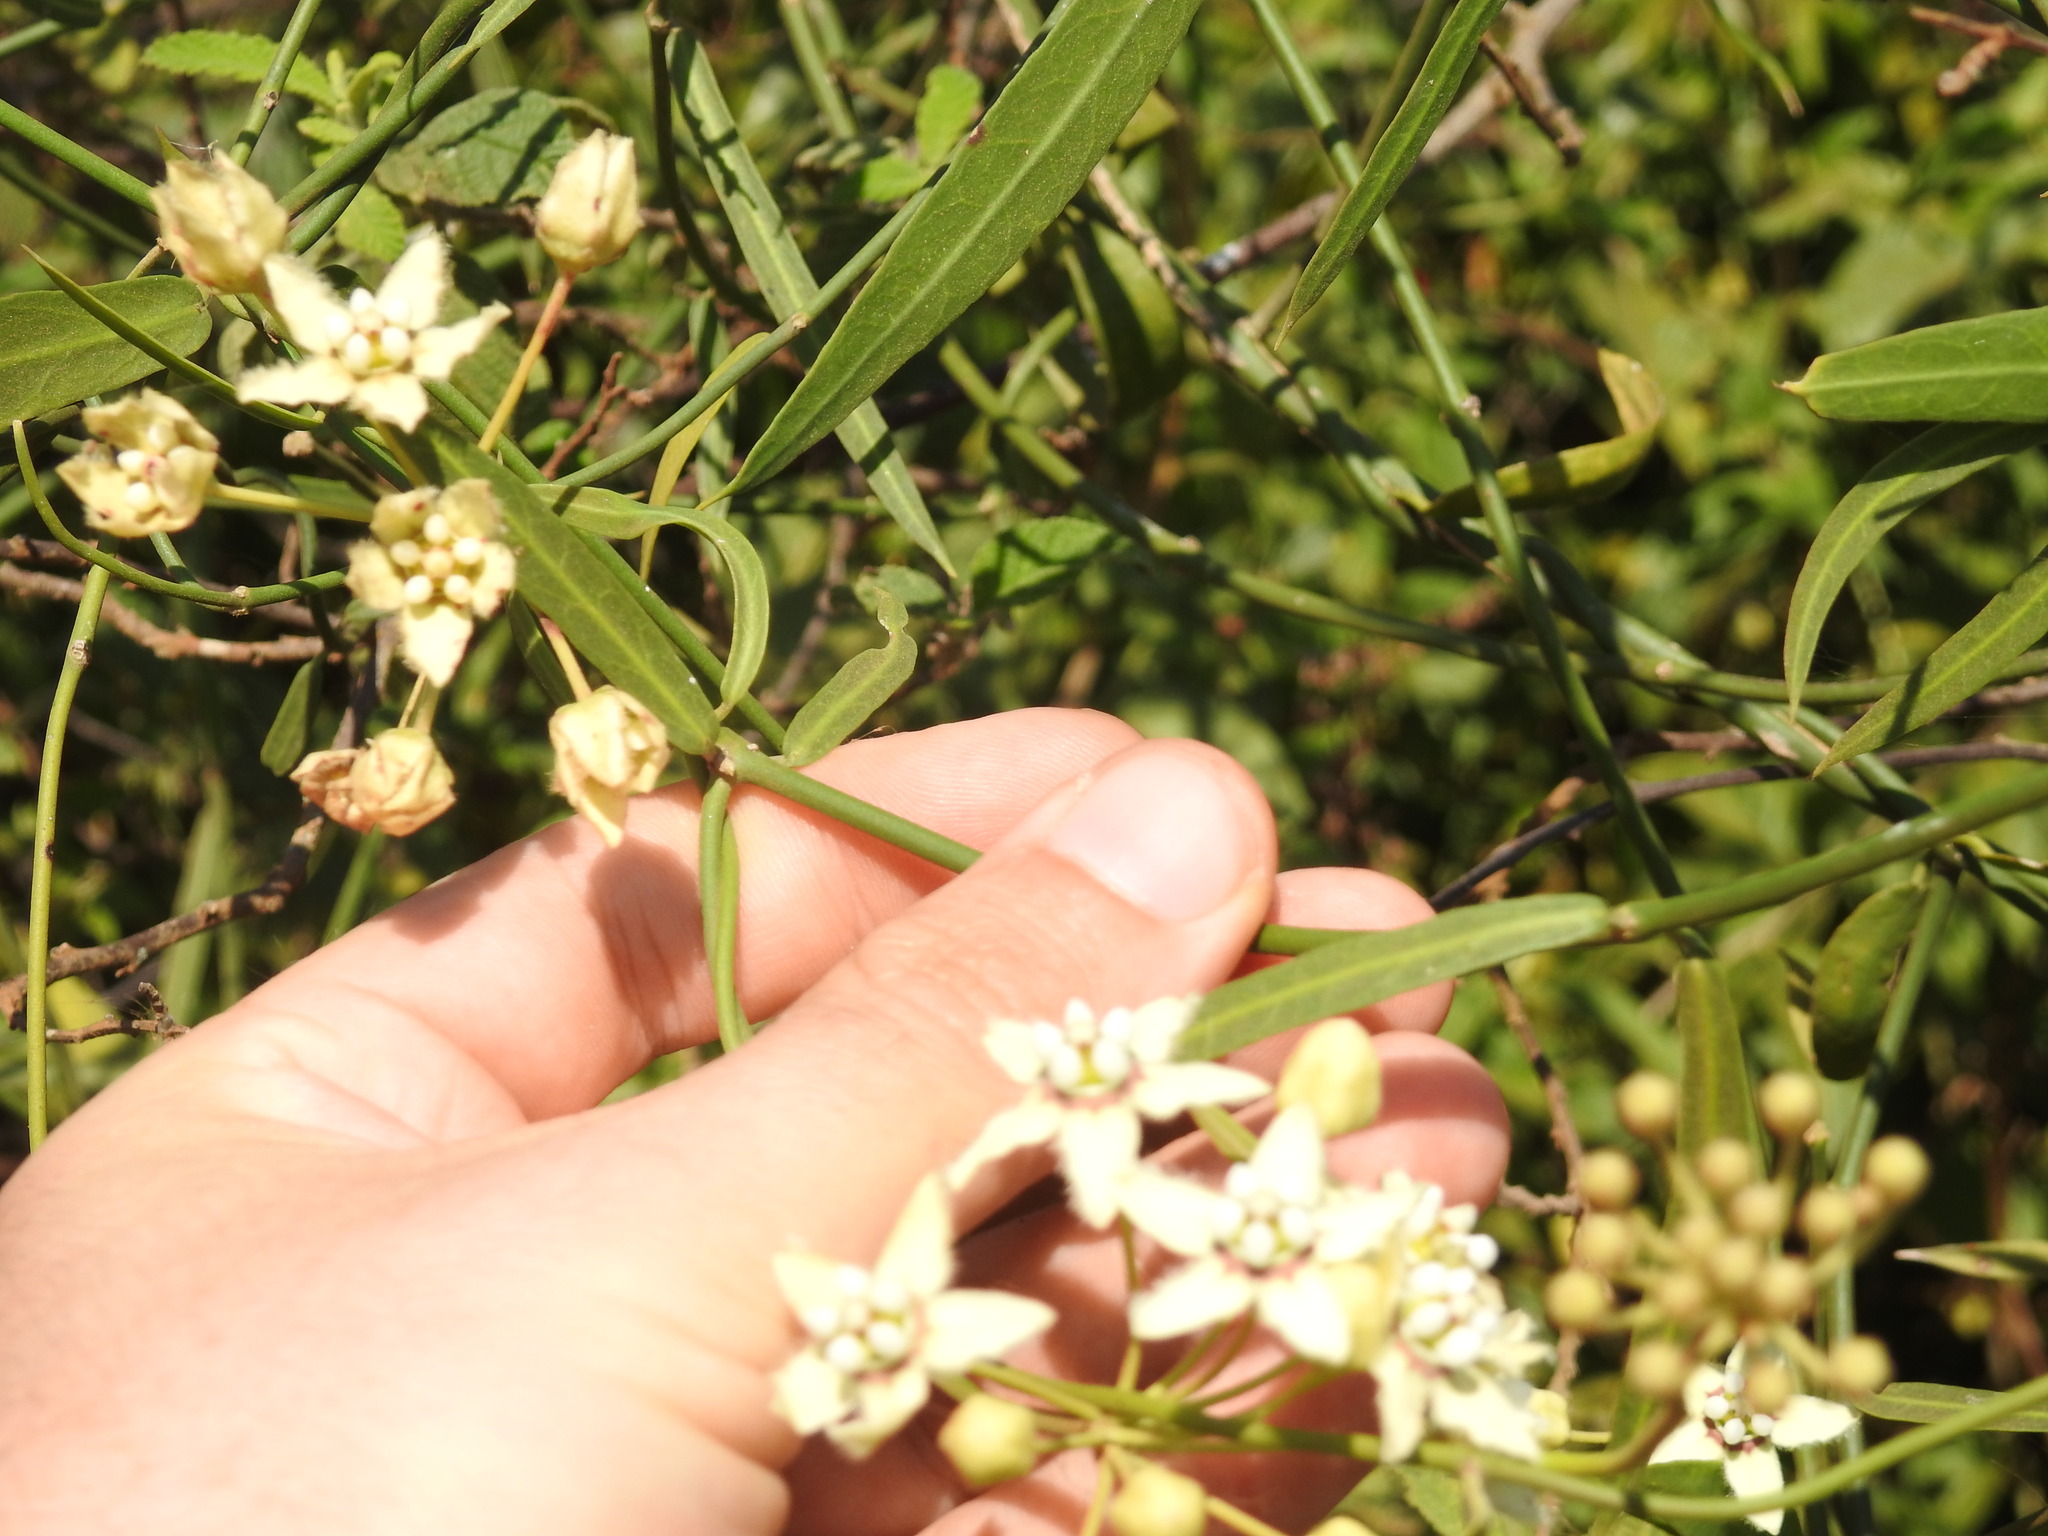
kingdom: Plantae
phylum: Tracheophyta
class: Magnoliopsida
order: Gentianales
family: Apocynaceae
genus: Funastrum
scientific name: Funastrum clausum
